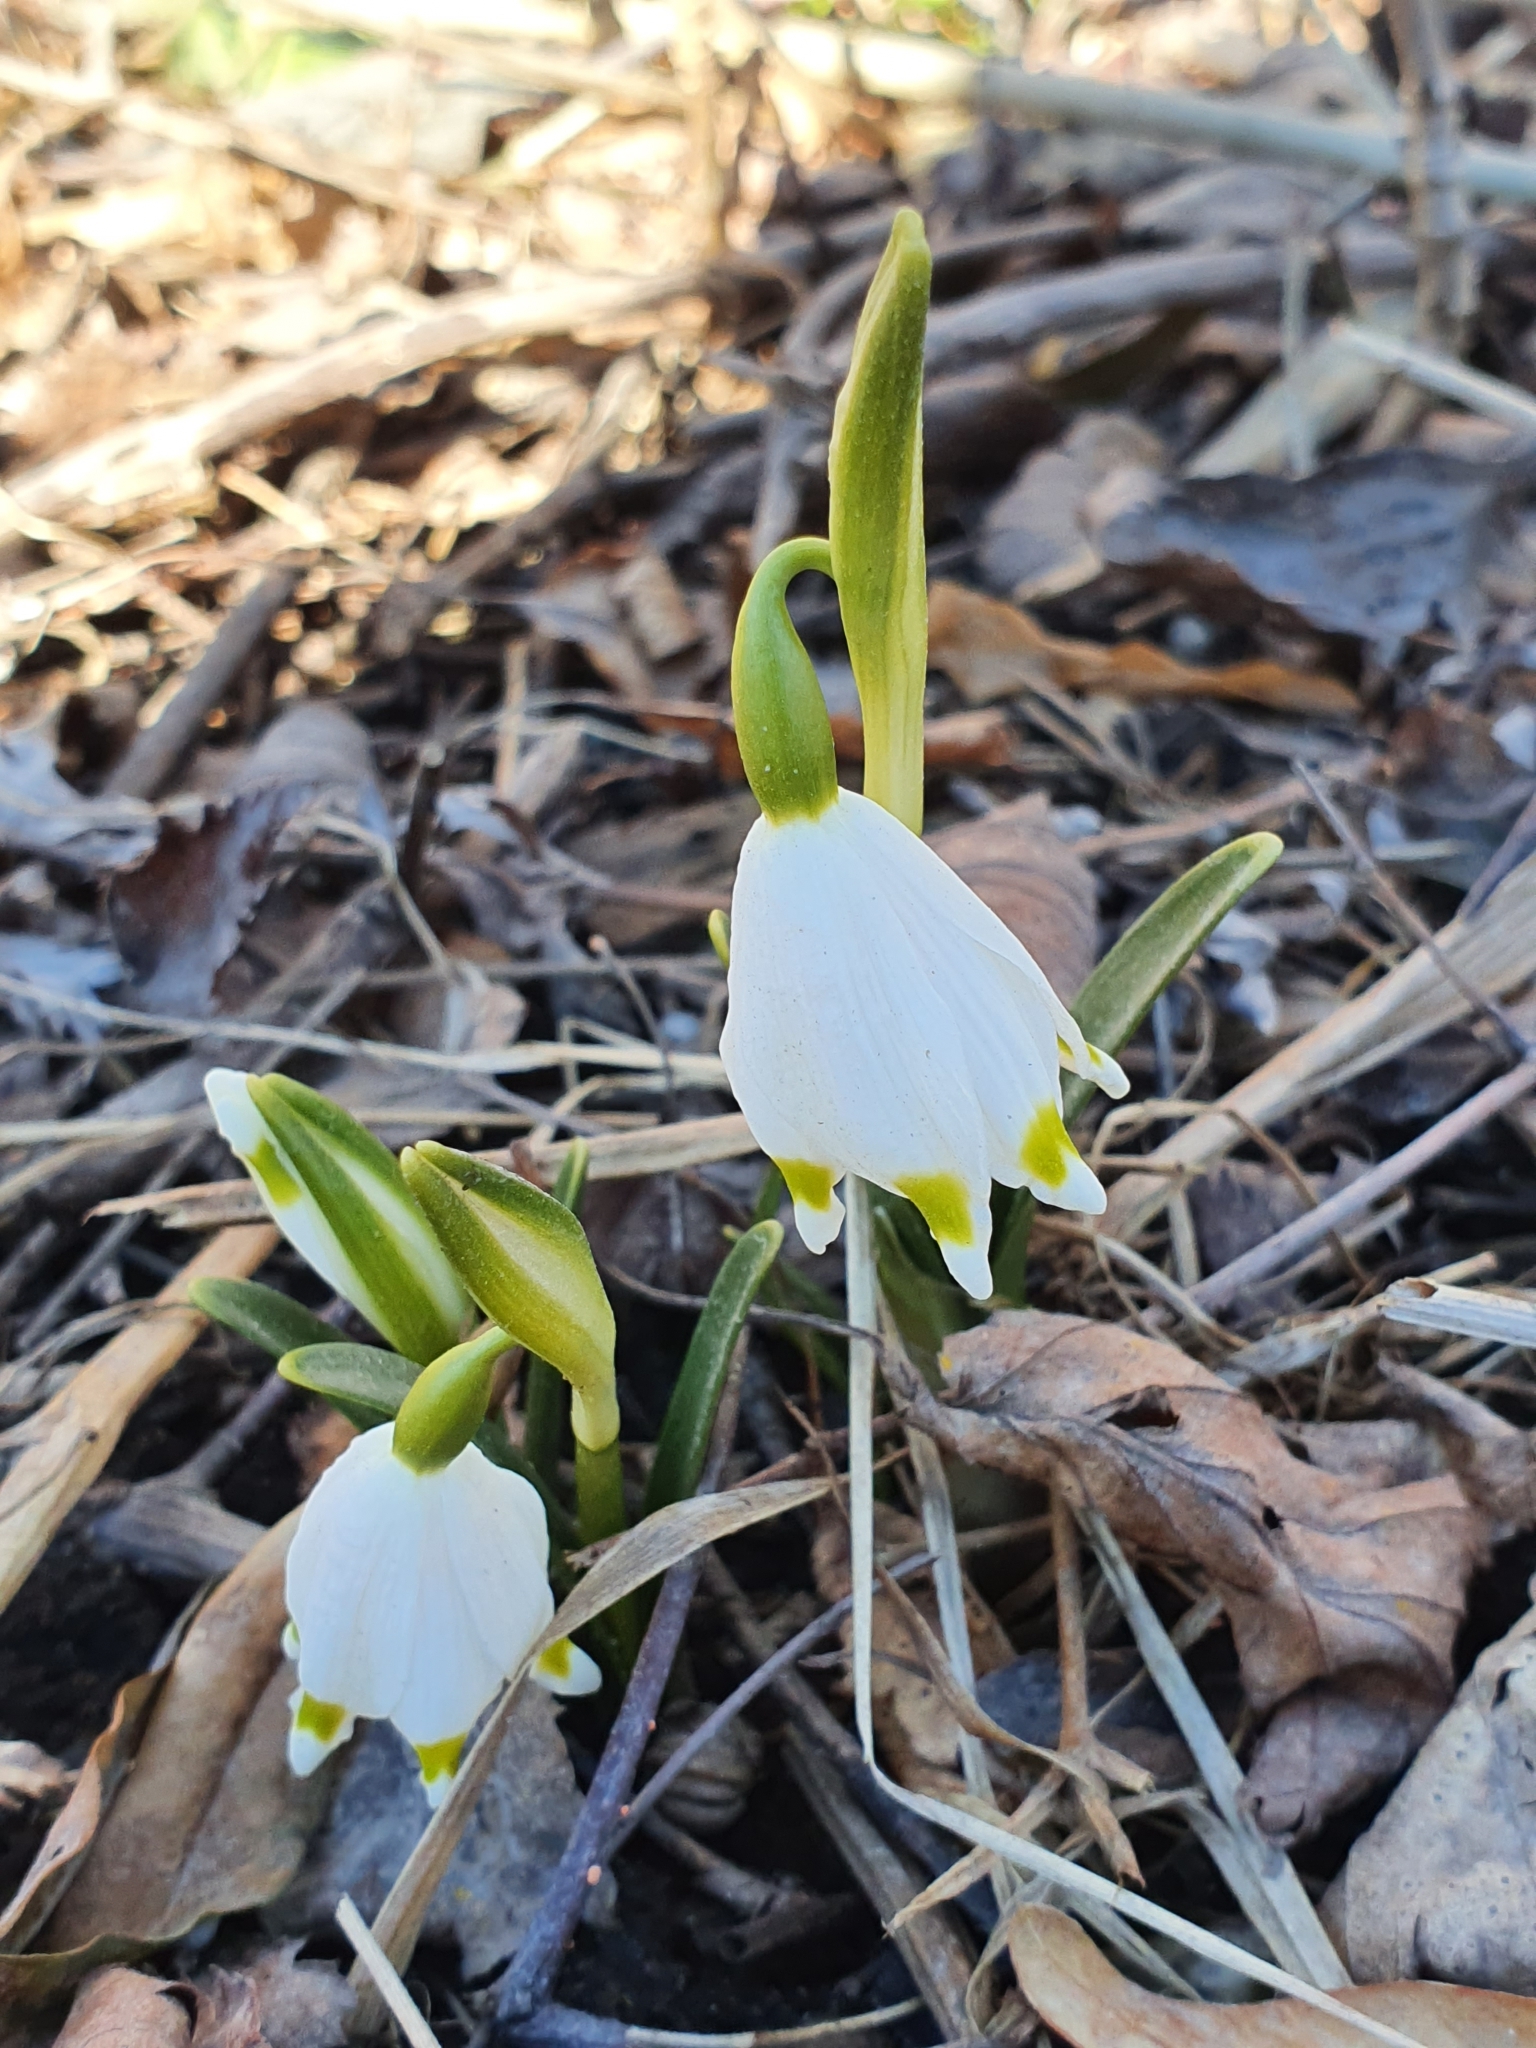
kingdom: Plantae
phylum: Tracheophyta
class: Liliopsida
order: Asparagales
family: Amaryllidaceae
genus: Leucojum
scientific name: Leucojum vernum
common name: Spring snowflake
